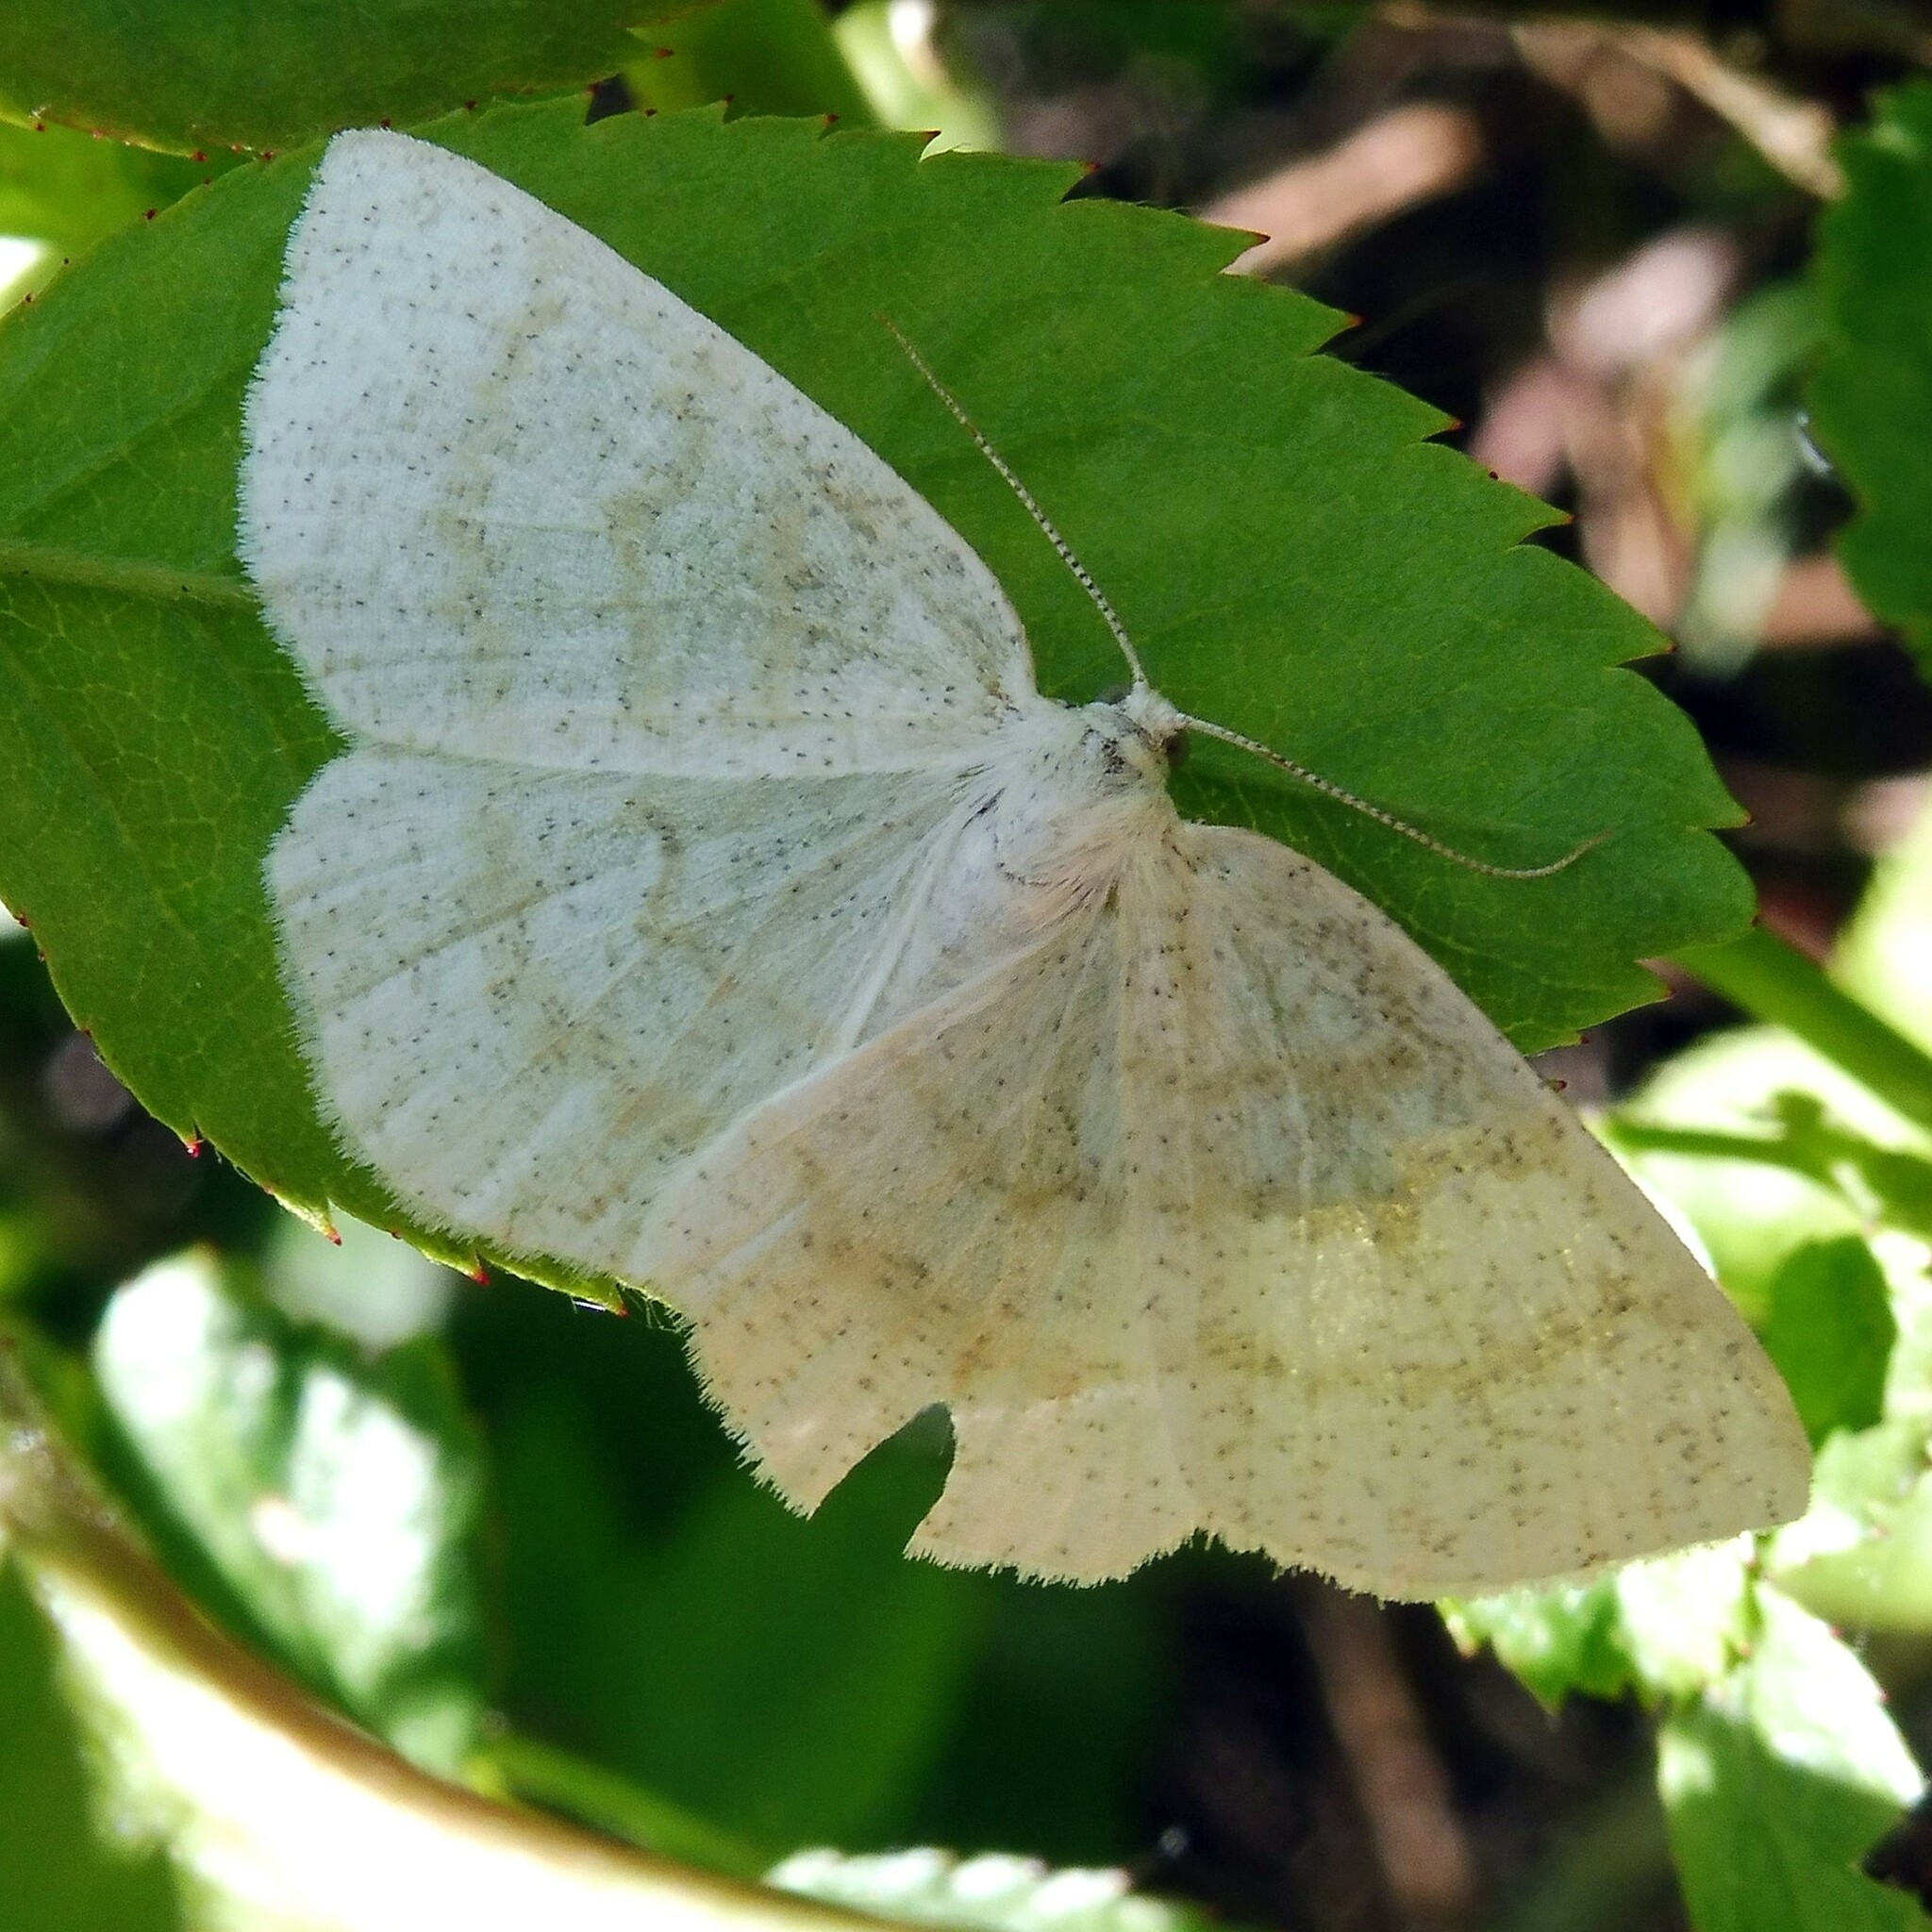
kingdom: Animalia
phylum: Arthropoda
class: Insecta
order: Lepidoptera
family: Geometridae
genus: Cabera
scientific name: Cabera exanthemata
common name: Common wave
